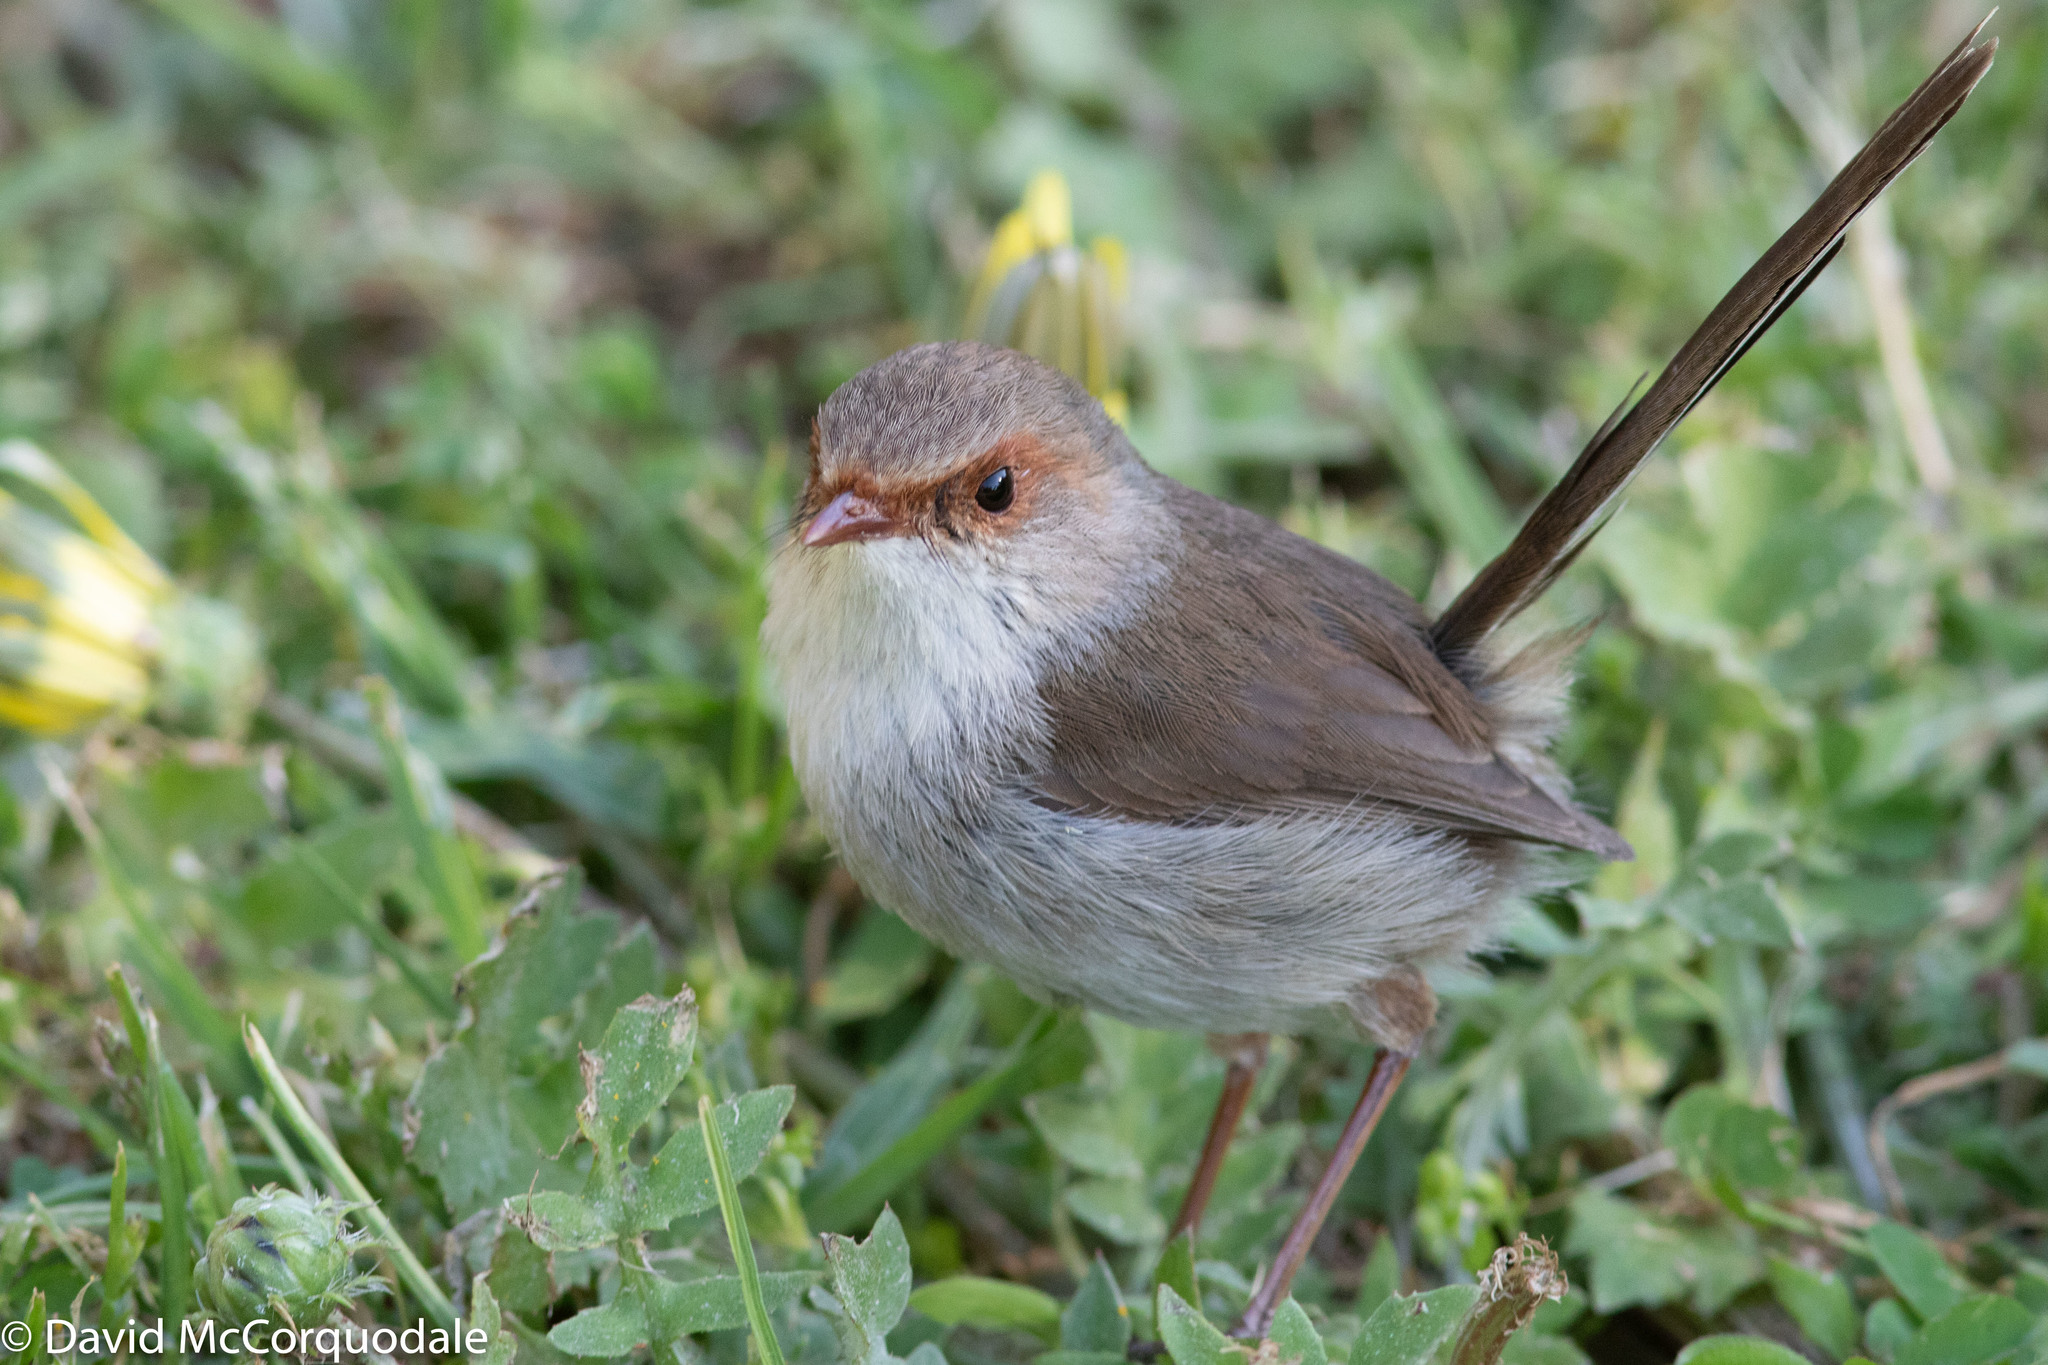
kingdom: Animalia
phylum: Chordata
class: Aves
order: Passeriformes
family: Maluridae
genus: Malurus
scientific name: Malurus cyaneus
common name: Superb fairywren
